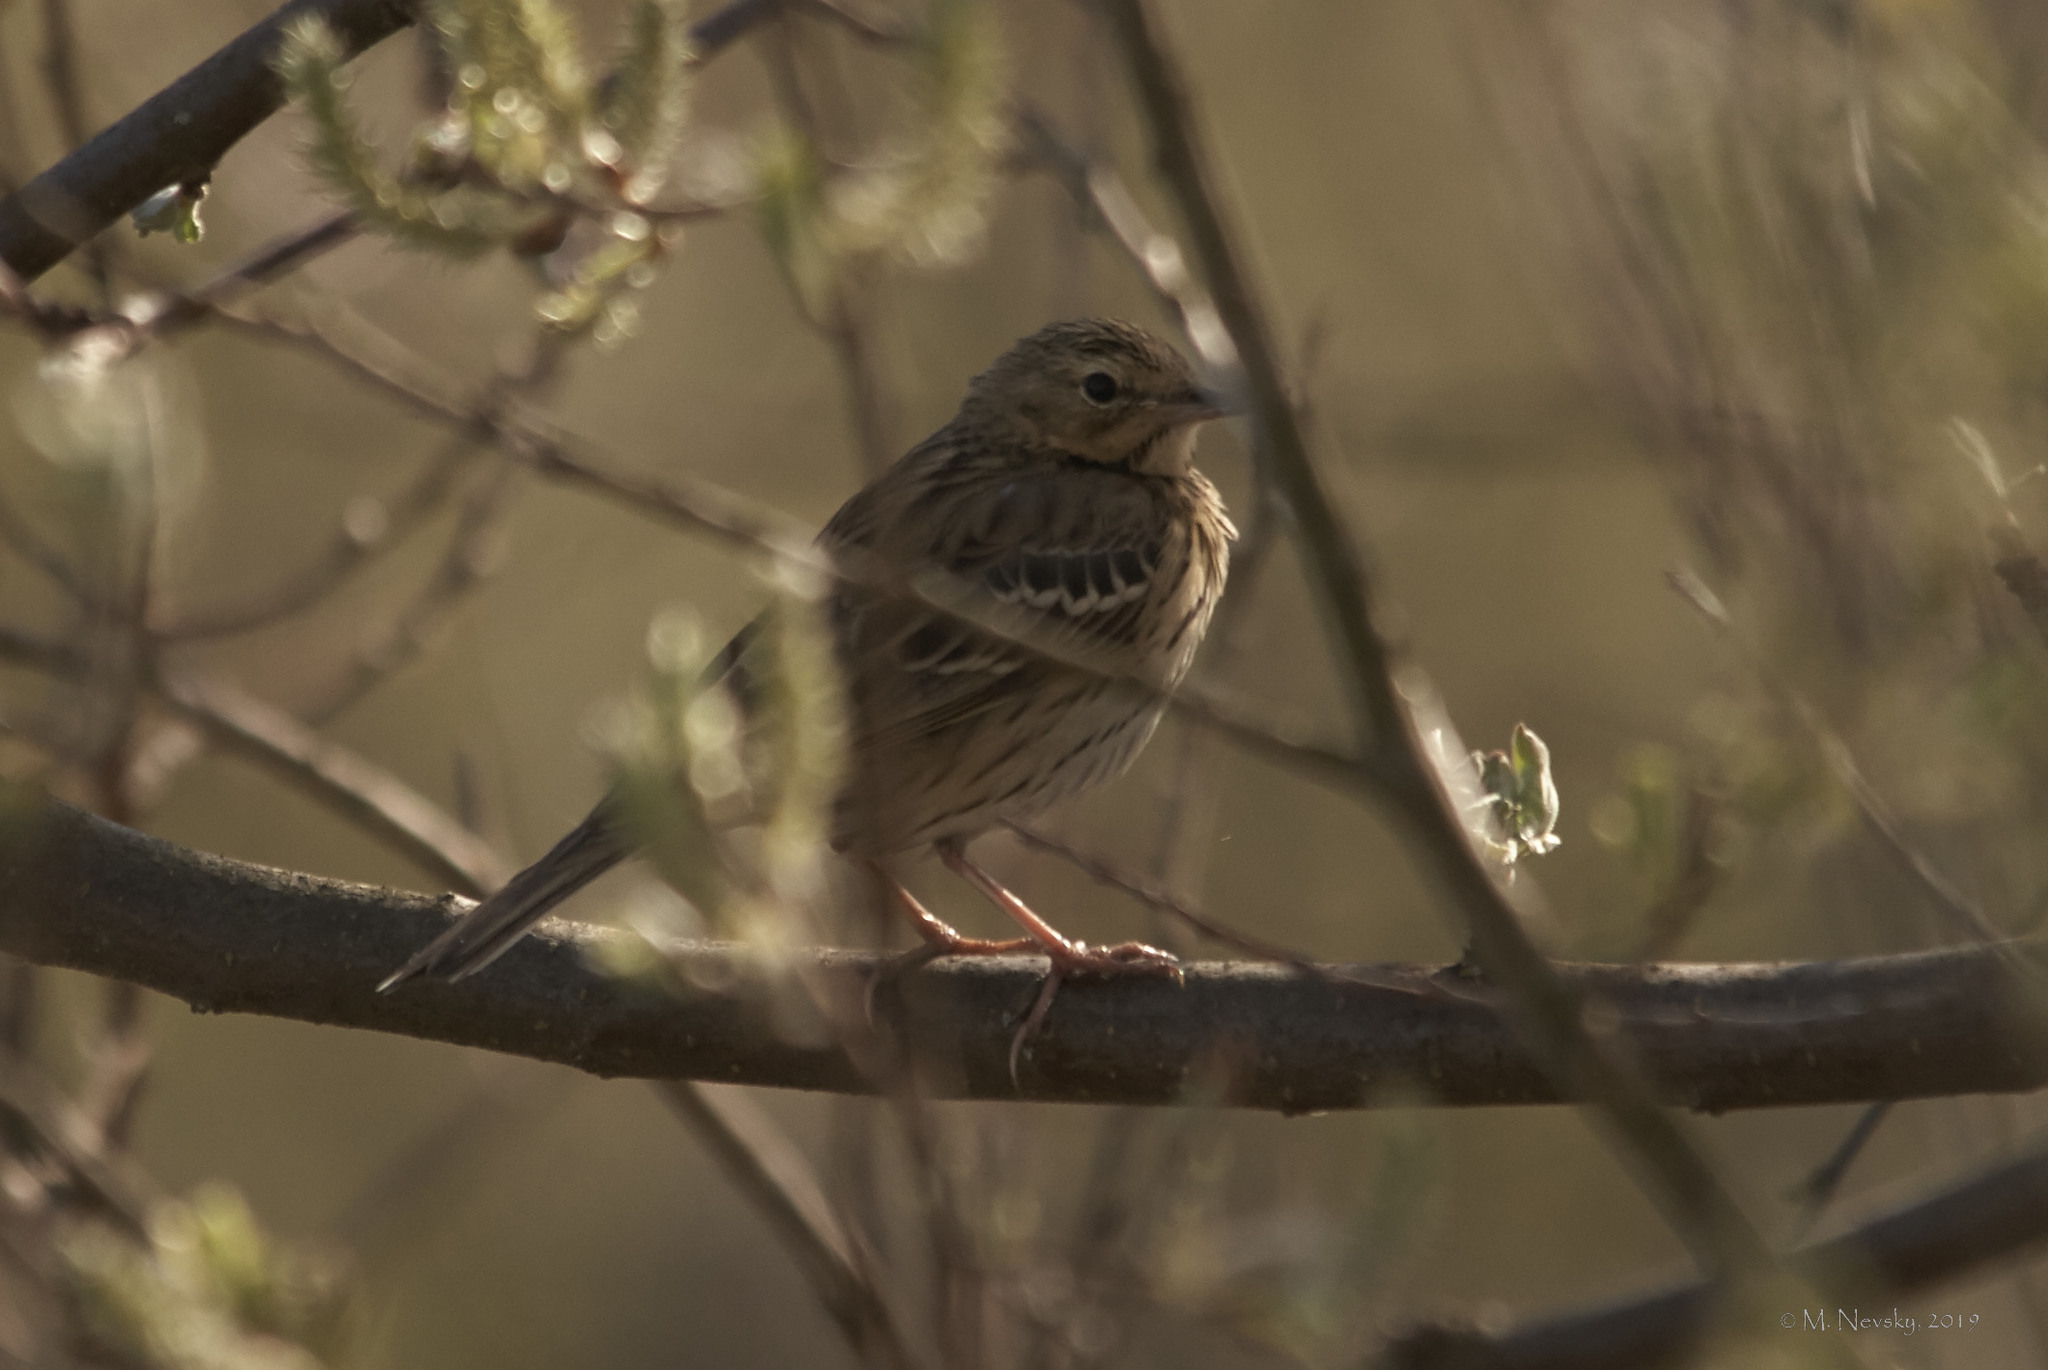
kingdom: Animalia
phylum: Chordata
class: Aves
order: Passeriformes
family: Motacillidae
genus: Anthus
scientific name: Anthus trivialis
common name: Tree pipit
